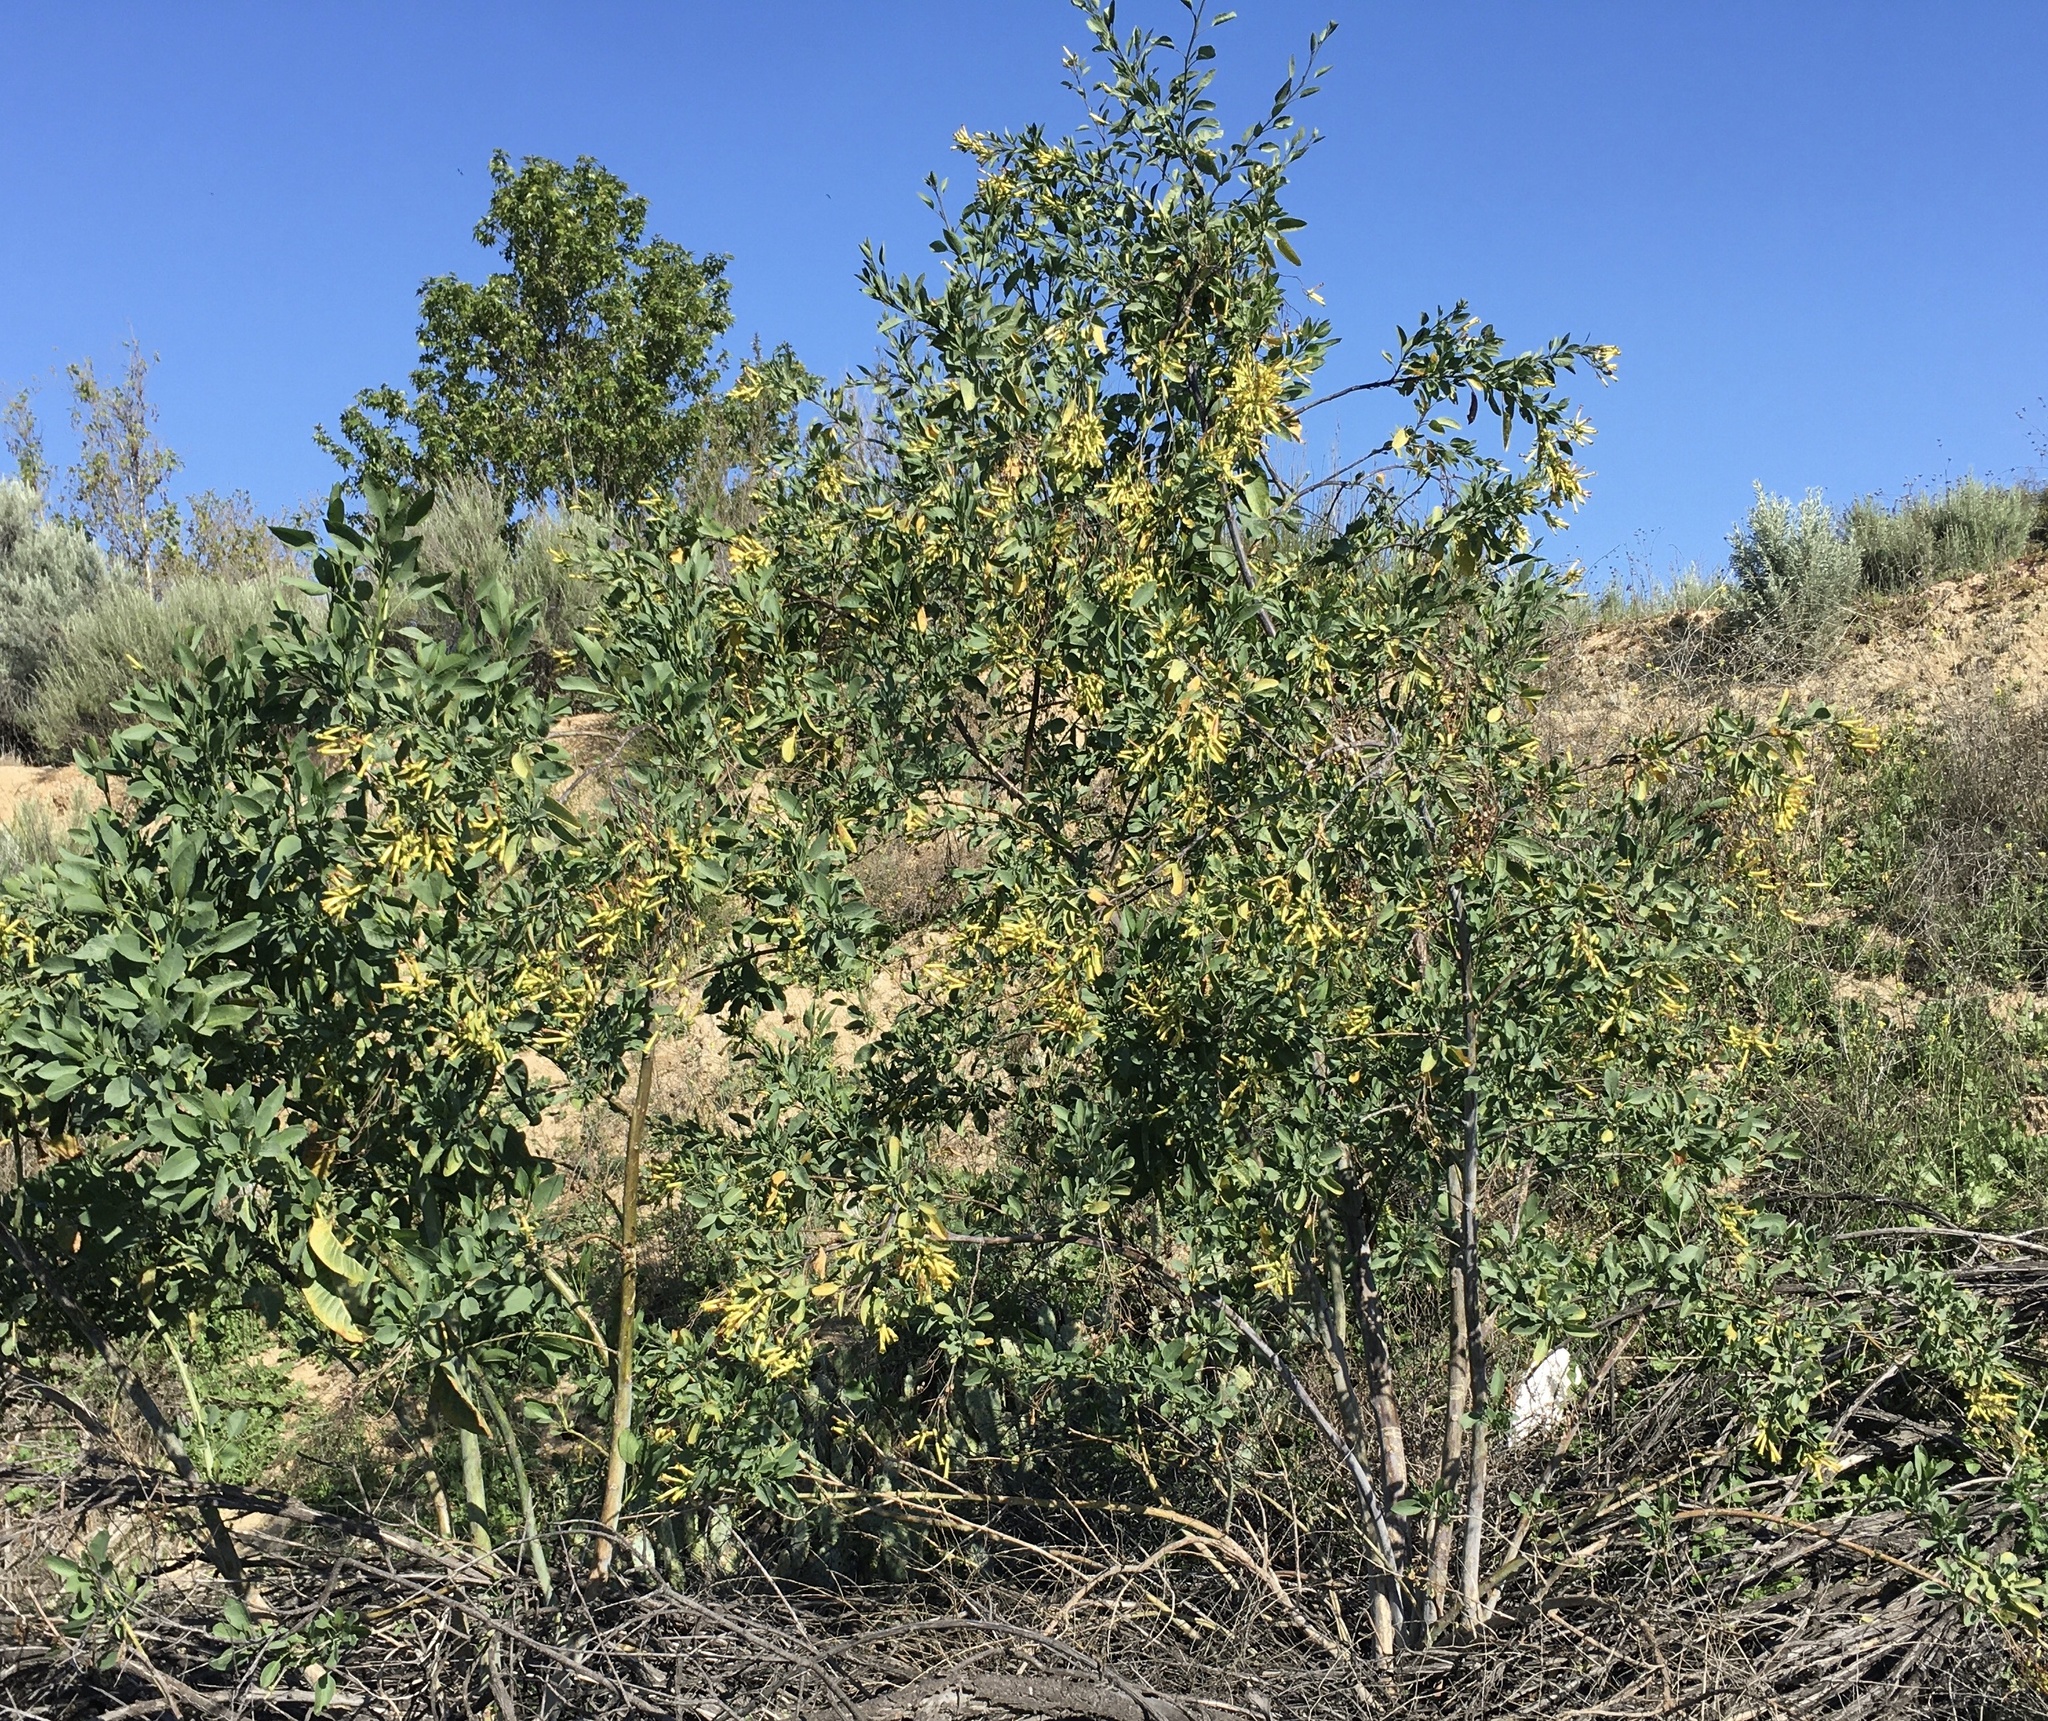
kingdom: Plantae
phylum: Tracheophyta
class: Magnoliopsida
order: Solanales
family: Solanaceae
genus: Nicotiana
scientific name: Nicotiana glauca
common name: Tree tobacco
